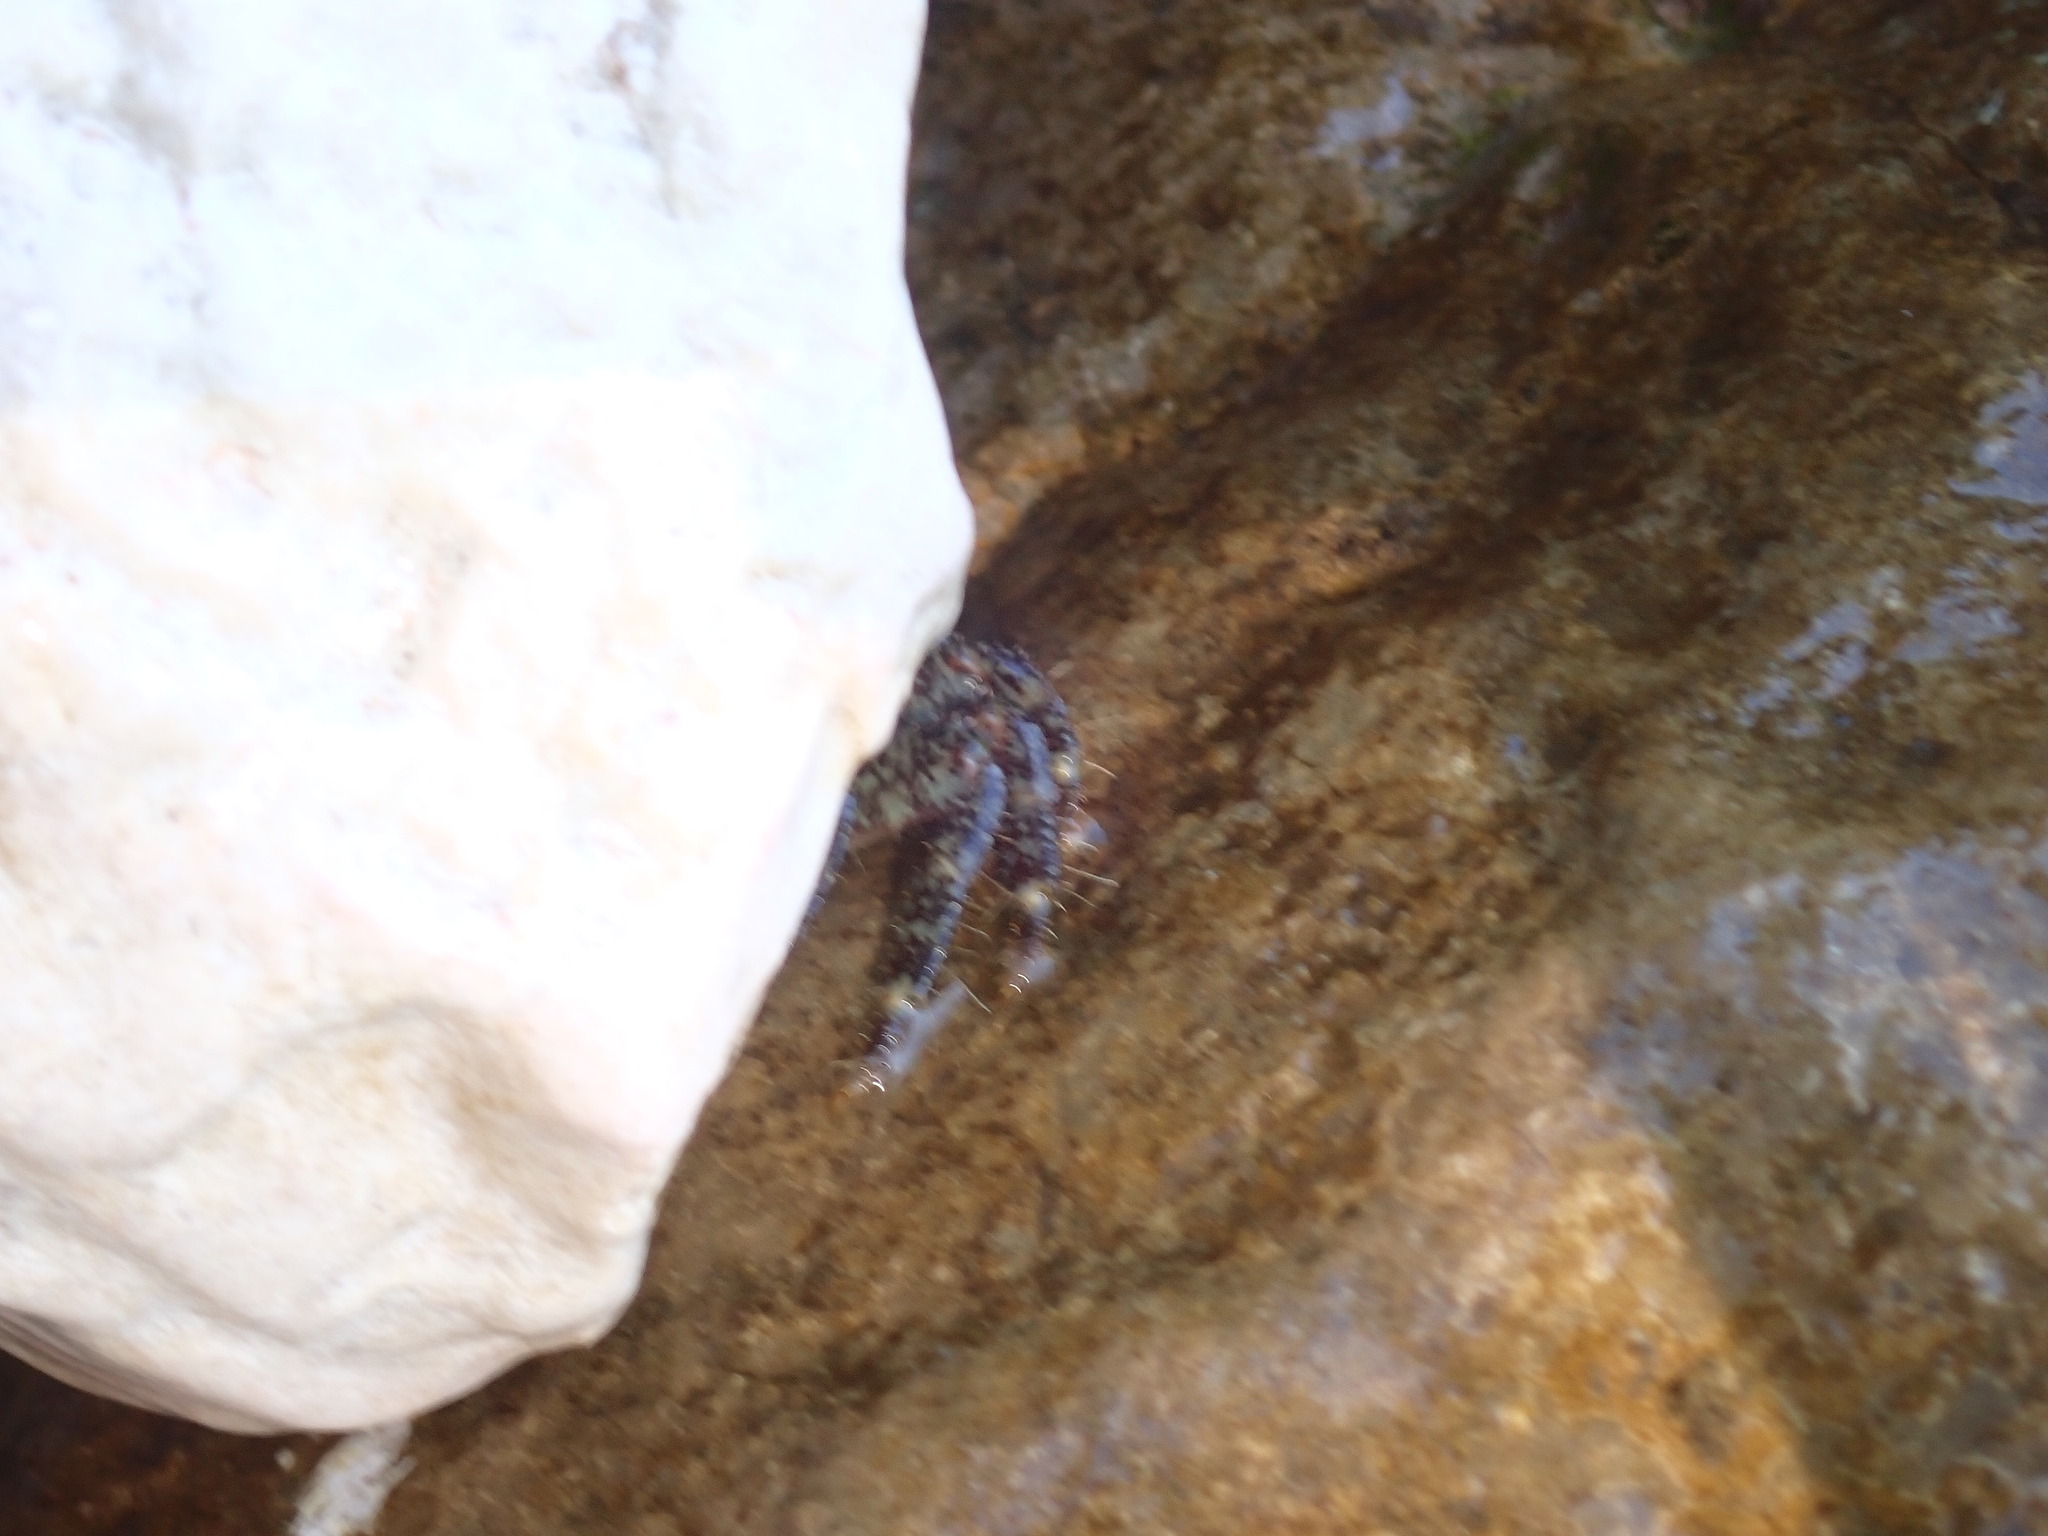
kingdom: Animalia
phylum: Arthropoda
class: Malacostraca
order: Decapoda
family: Grapsidae
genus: Pachygrapsus
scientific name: Pachygrapsus marmoratus
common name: Marbled rock crab
